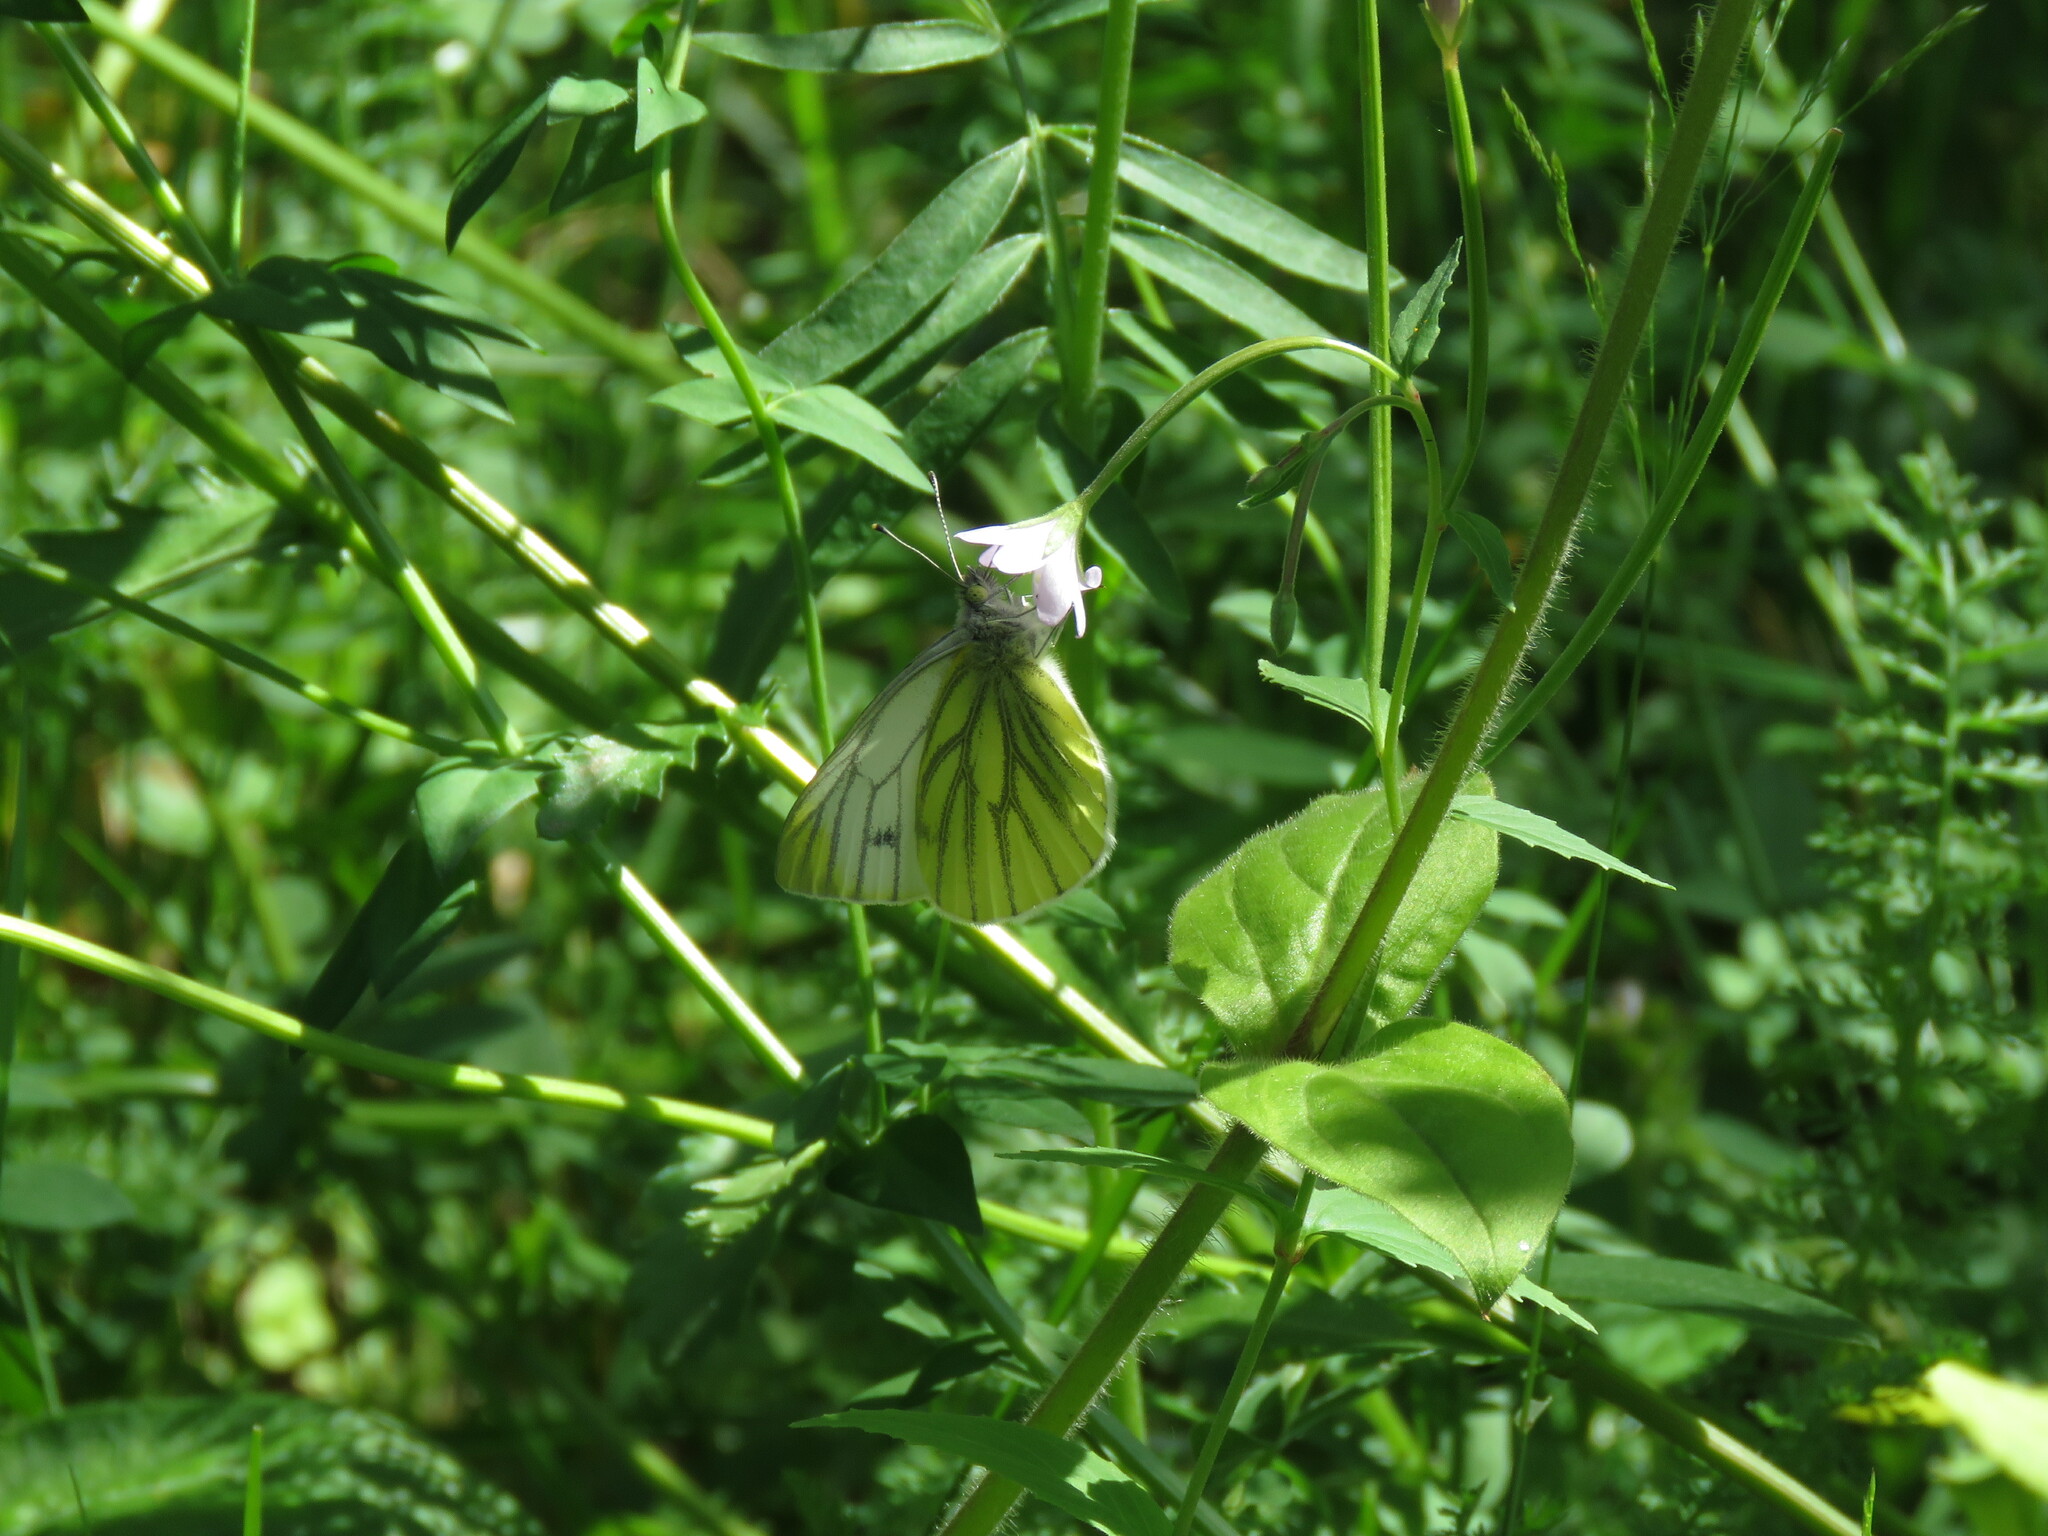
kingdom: Animalia
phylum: Arthropoda
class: Insecta
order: Lepidoptera
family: Pieridae
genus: Pieris
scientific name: Pieris napi
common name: Green-veined white
